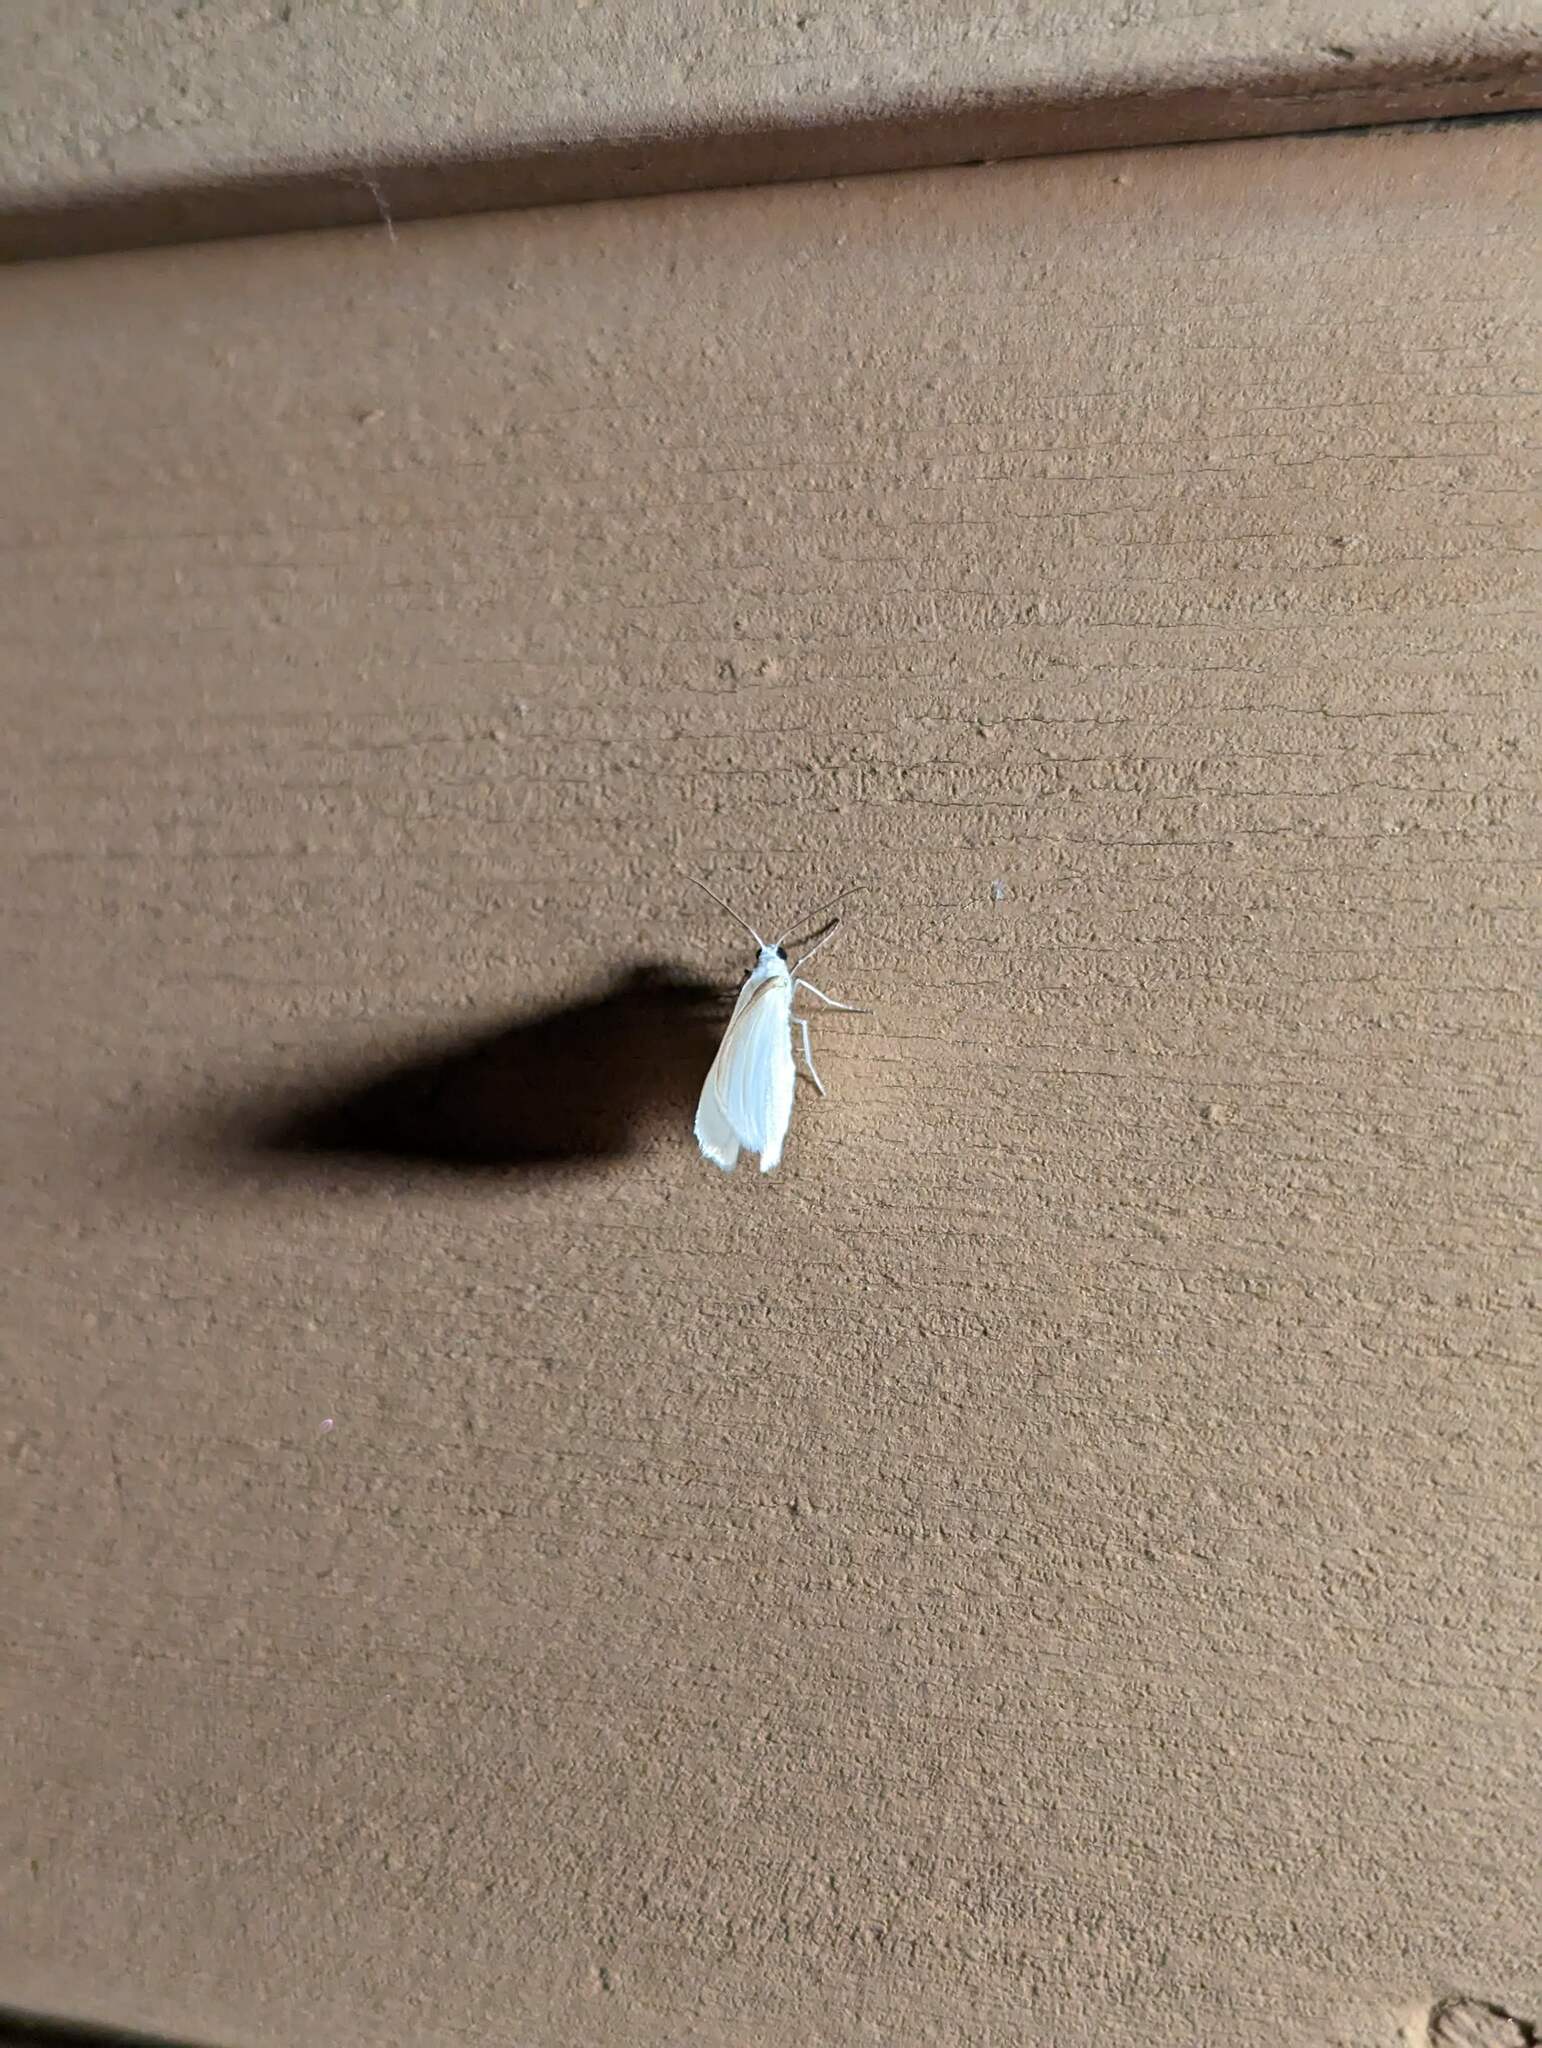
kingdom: Animalia
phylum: Arthropoda
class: Insecta
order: Lepidoptera
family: Geometridae
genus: Lomographa
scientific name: Lomographa vestaliata
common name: White spring moth
